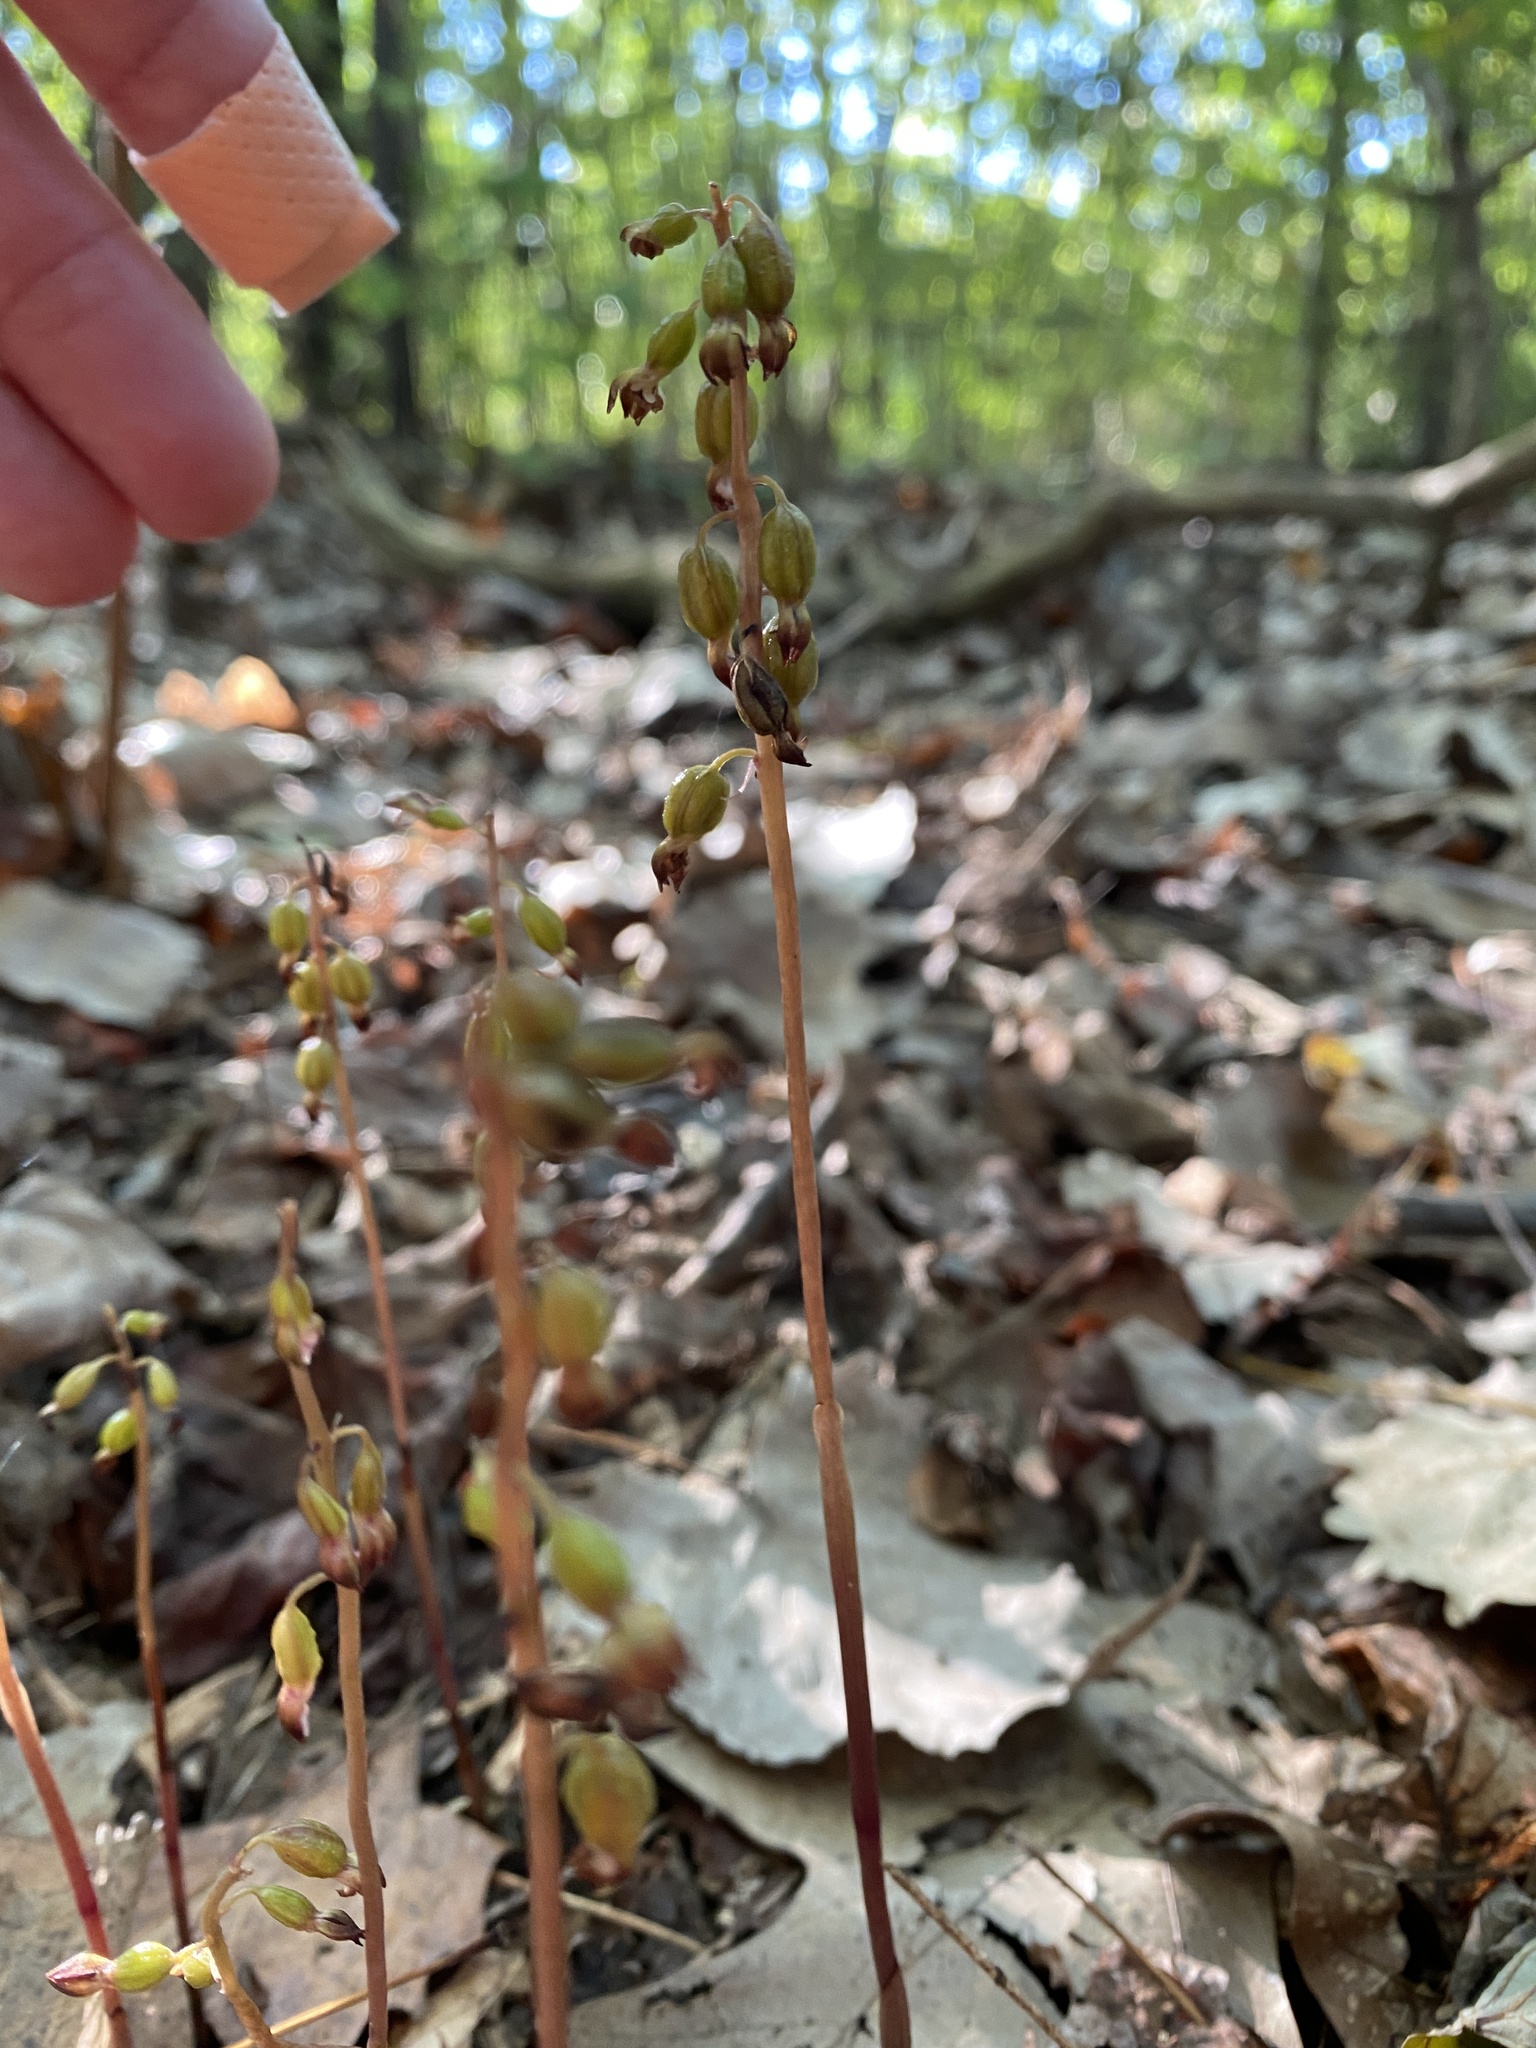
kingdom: Plantae
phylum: Tracheophyta
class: Liliopsida
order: Asparagales
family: Orchidaceae
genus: Corallorhiza
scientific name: Corallorhiza odontorhiza
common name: Autumn coralroot
